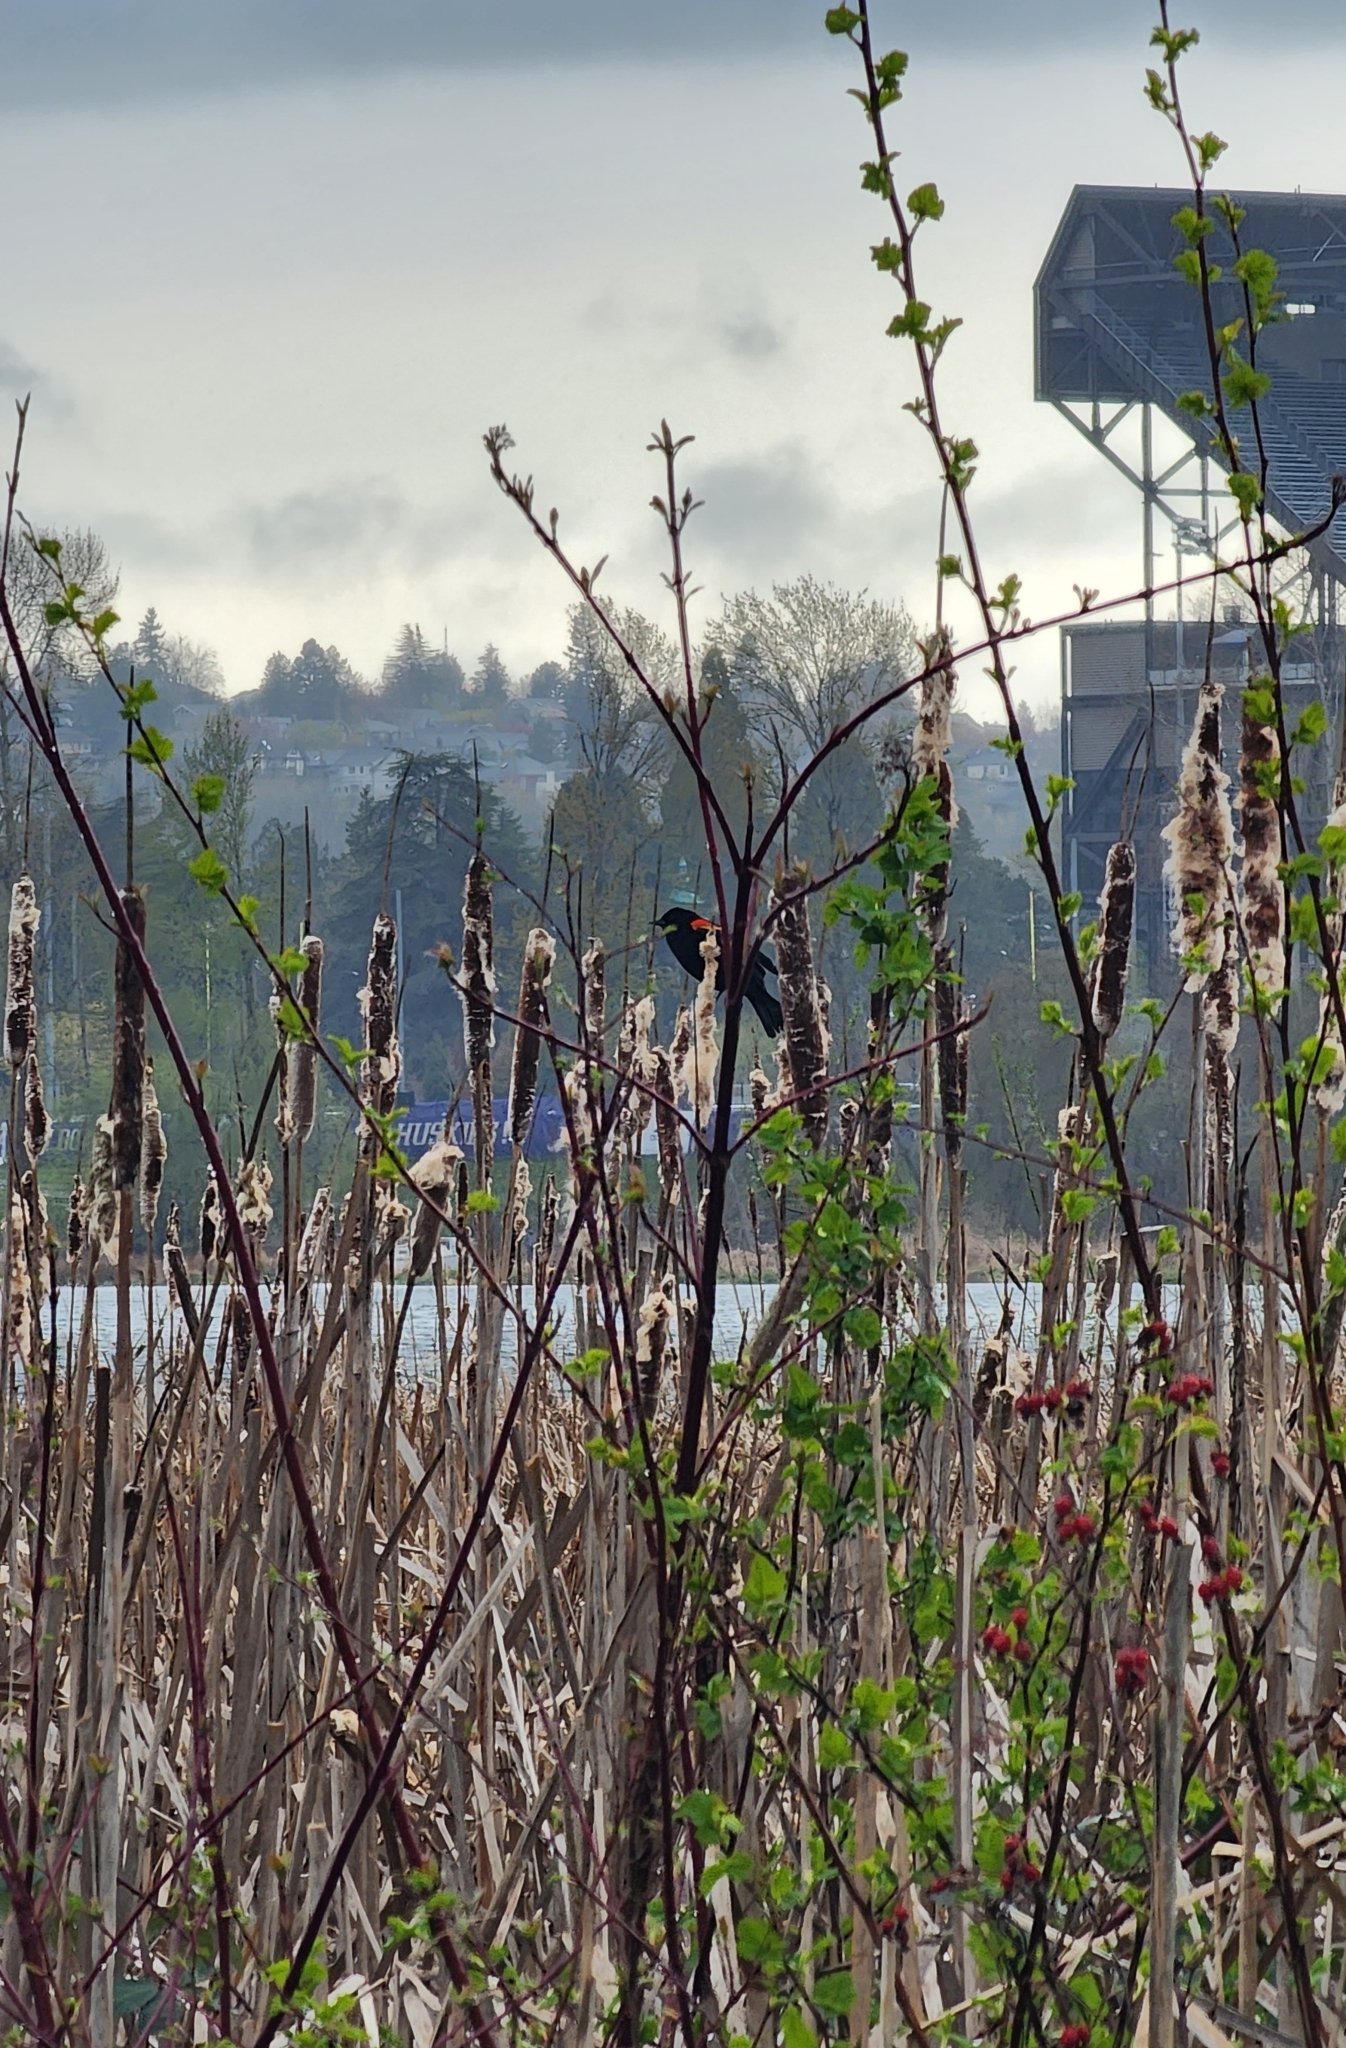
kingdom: Animalia
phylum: Chordata
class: Aves
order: Passeriformes
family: Icteridae
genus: Agelaius
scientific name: Agelaius phoeniceus
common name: Red-winged blackbird
